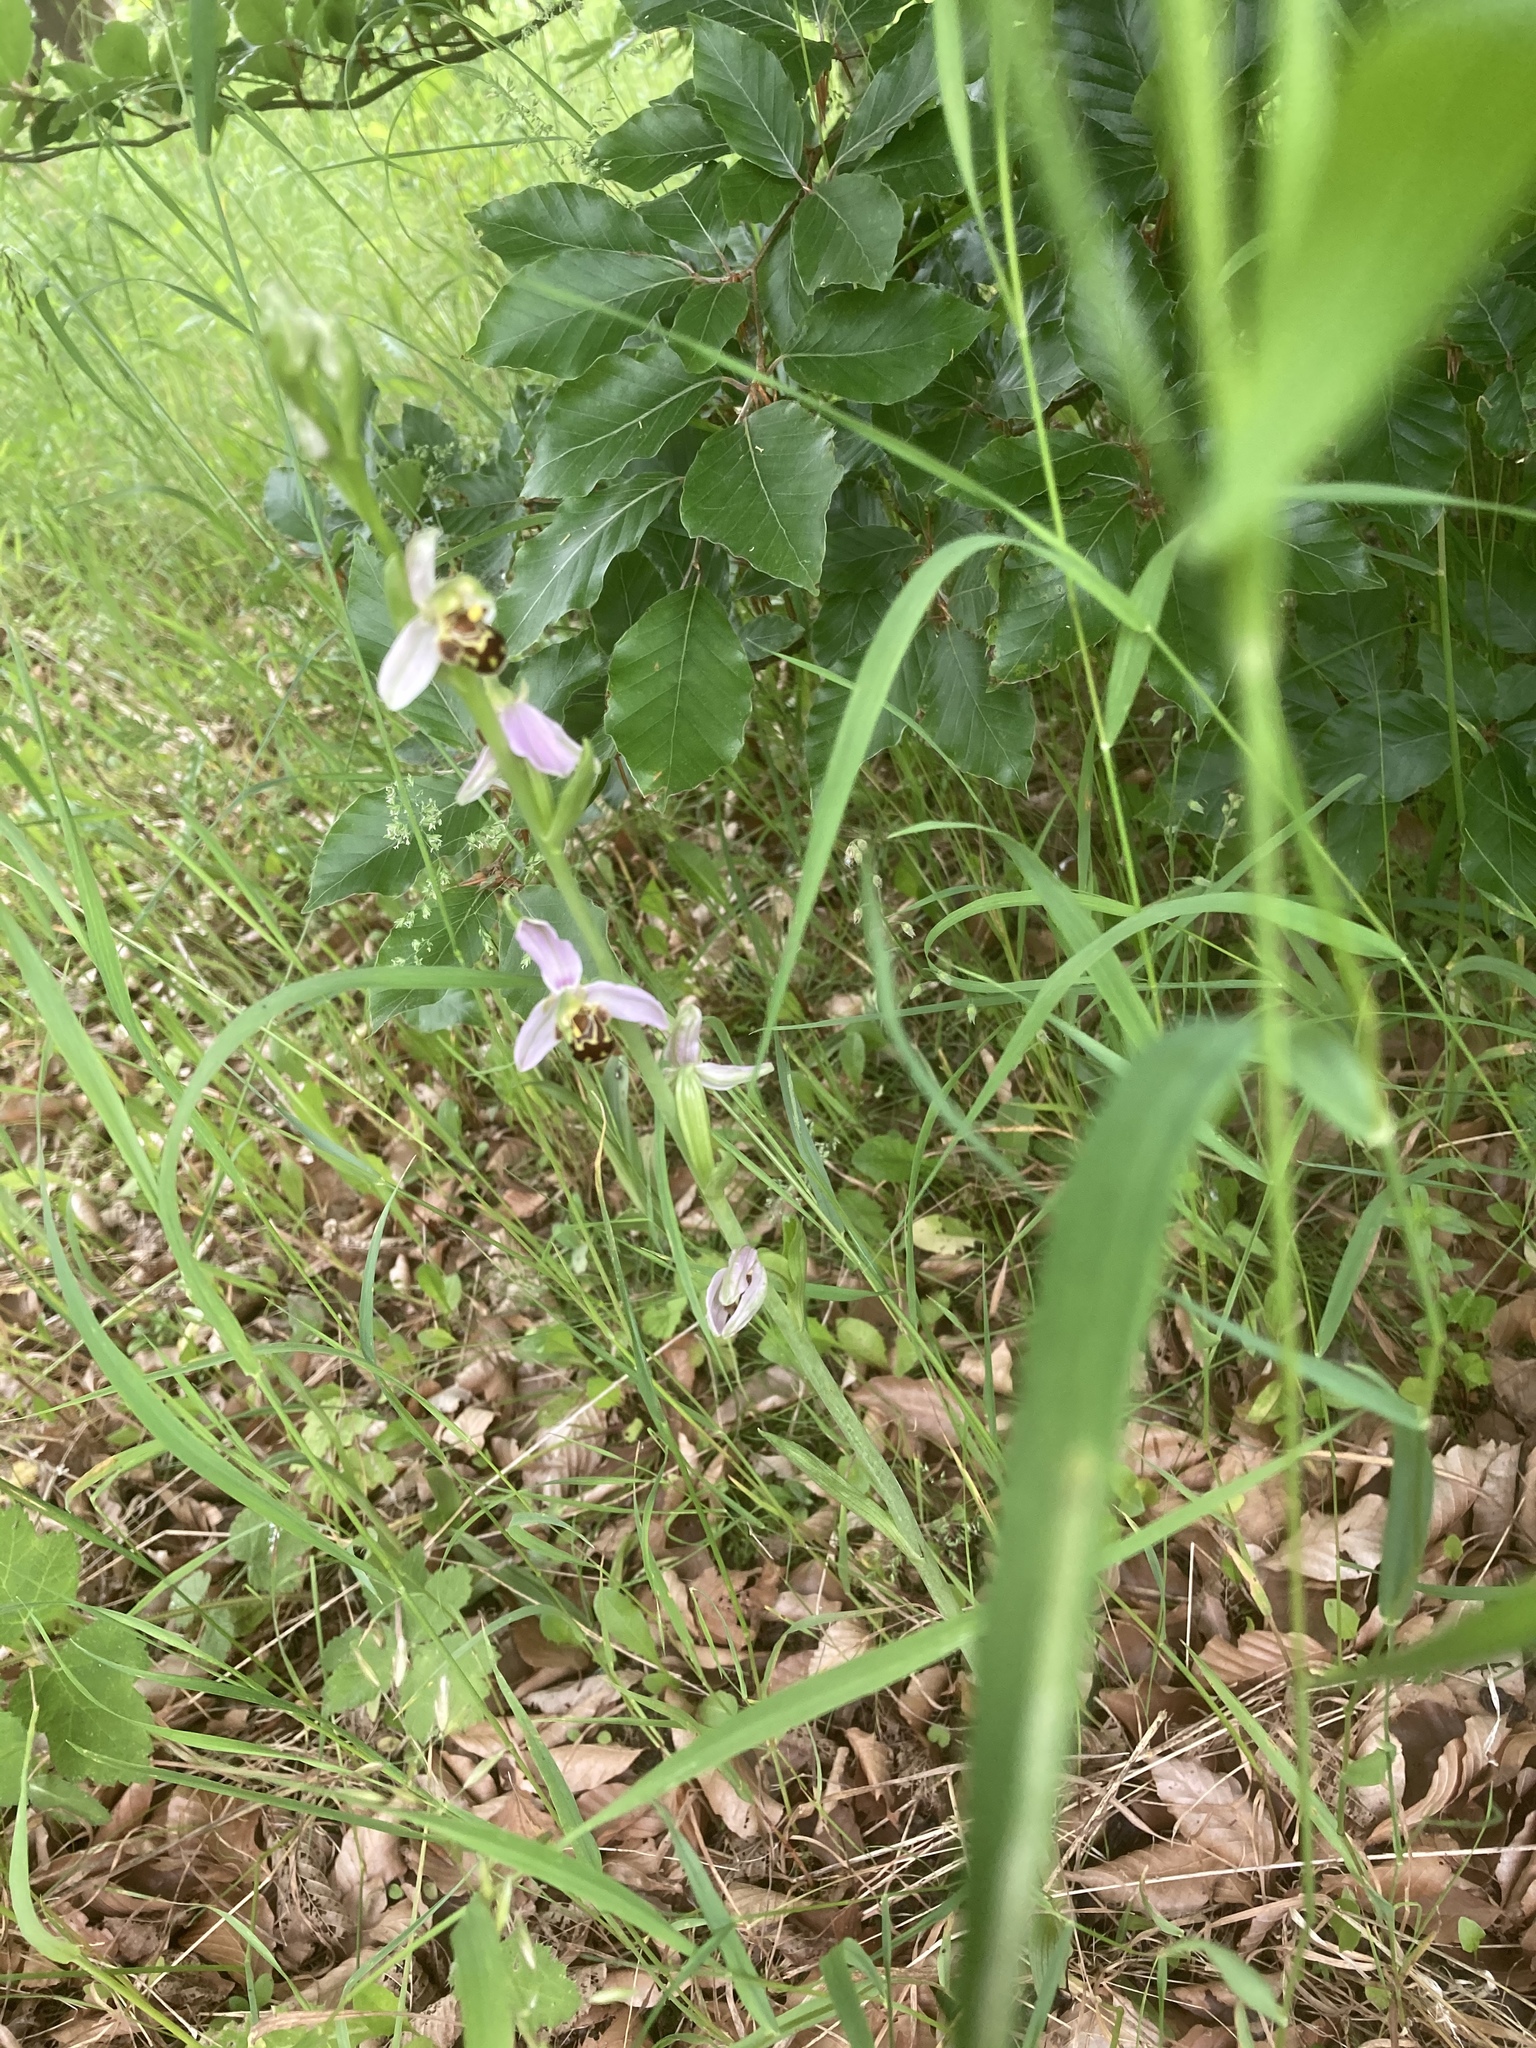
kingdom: Plantae
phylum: Tracheophyta
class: Liliopsida
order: Asparagales
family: Orchidaceae
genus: Ophrys
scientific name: Ophrys apifera
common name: Bee orchid
